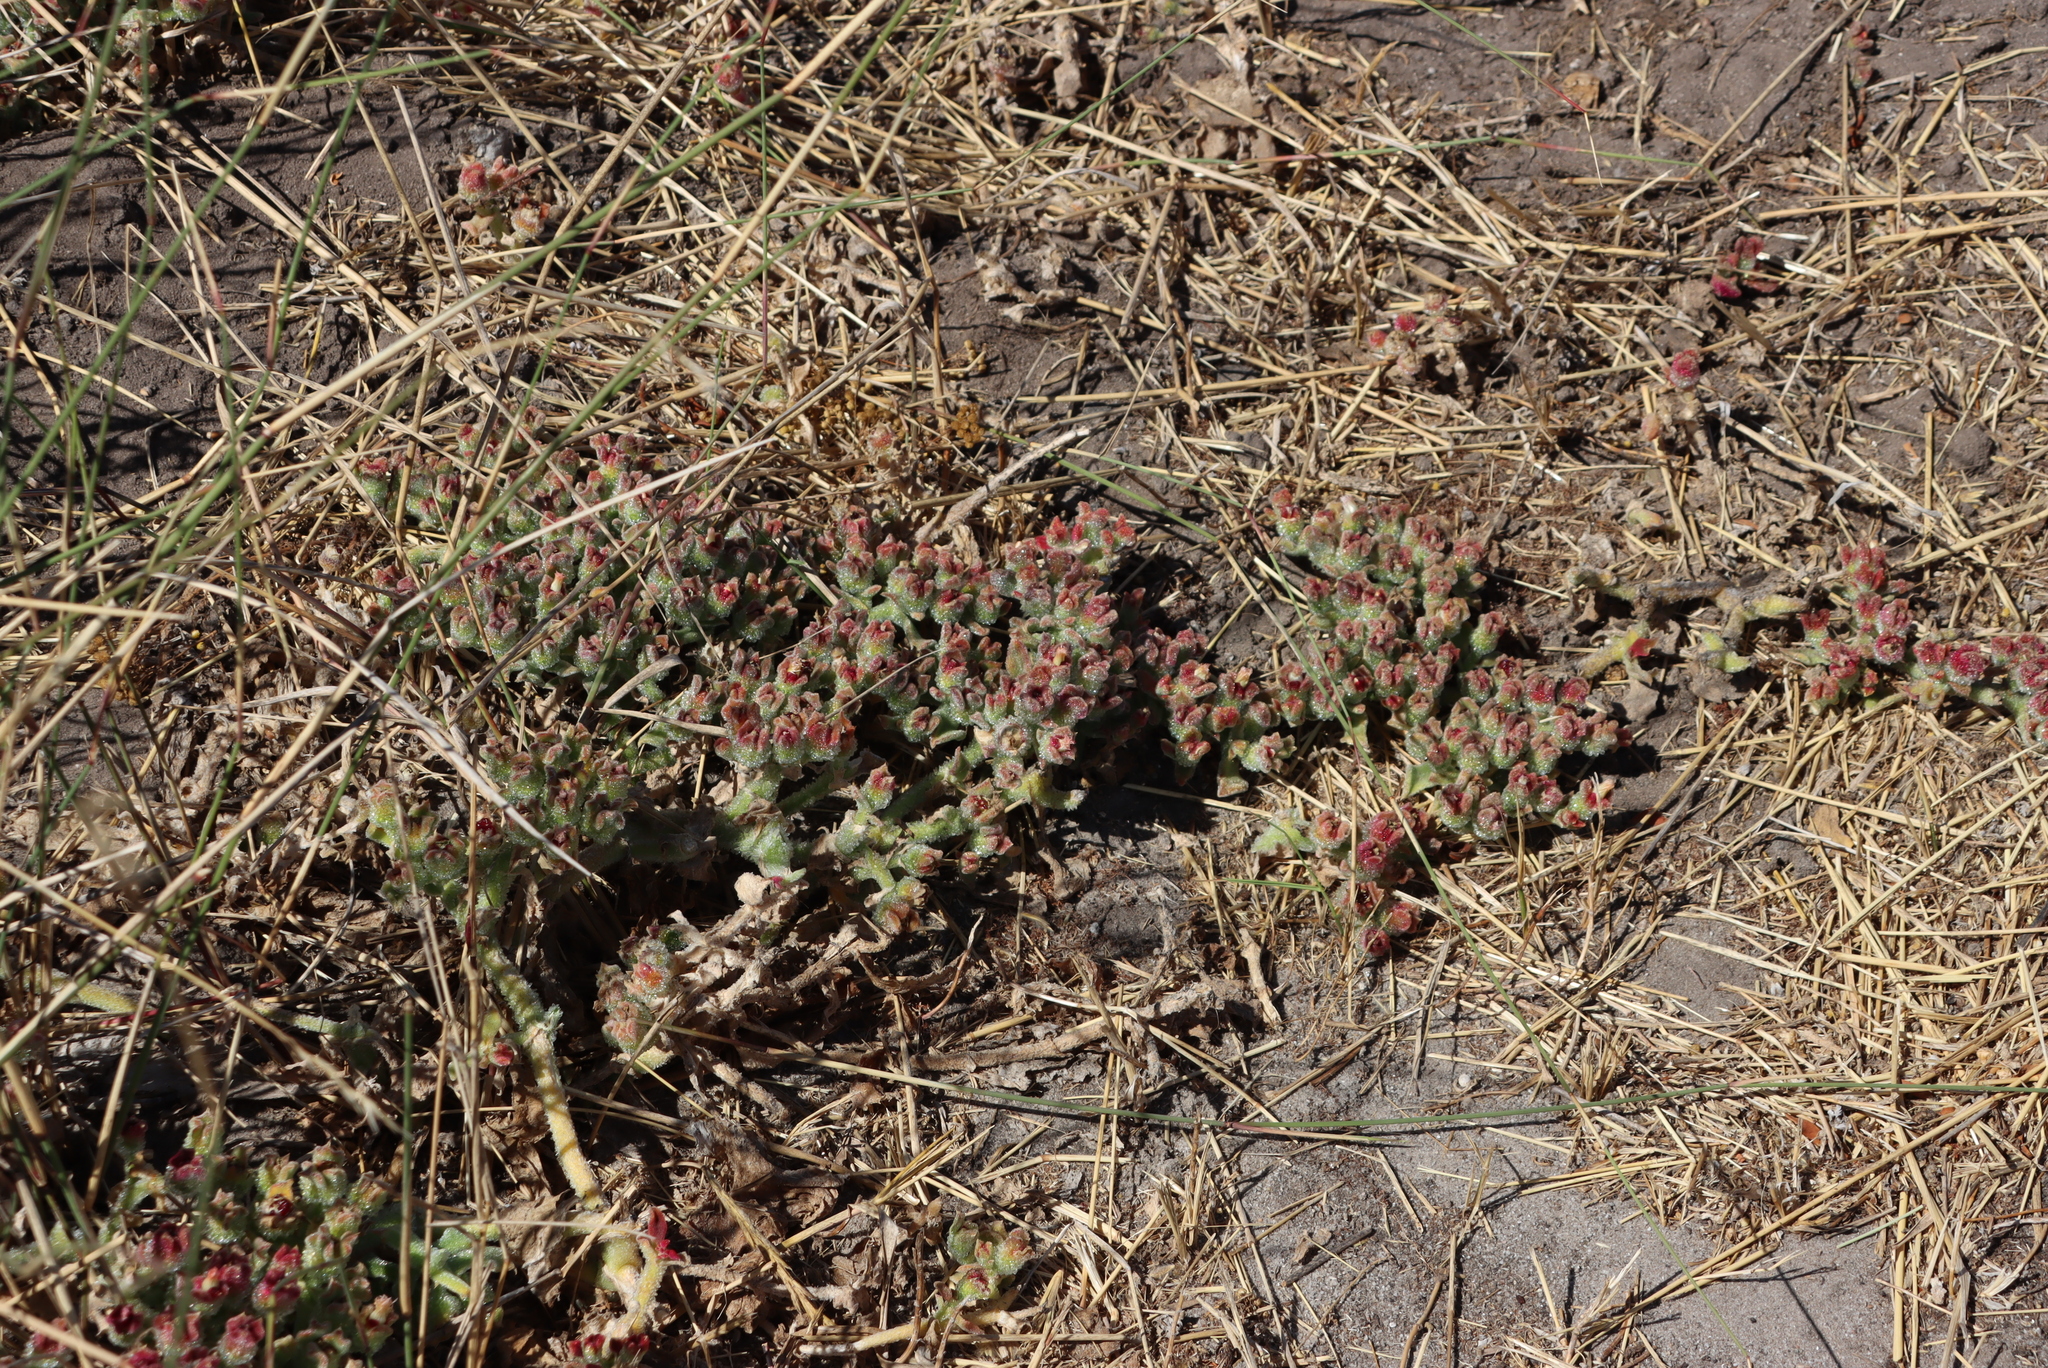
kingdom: Plantae
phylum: Tracheophyta
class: Magnoliopsida
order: Caryophyllales
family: Aizoaceae
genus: Mesembryanthemum
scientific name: Mesembryanthemum crystallinum
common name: Common iceplant
